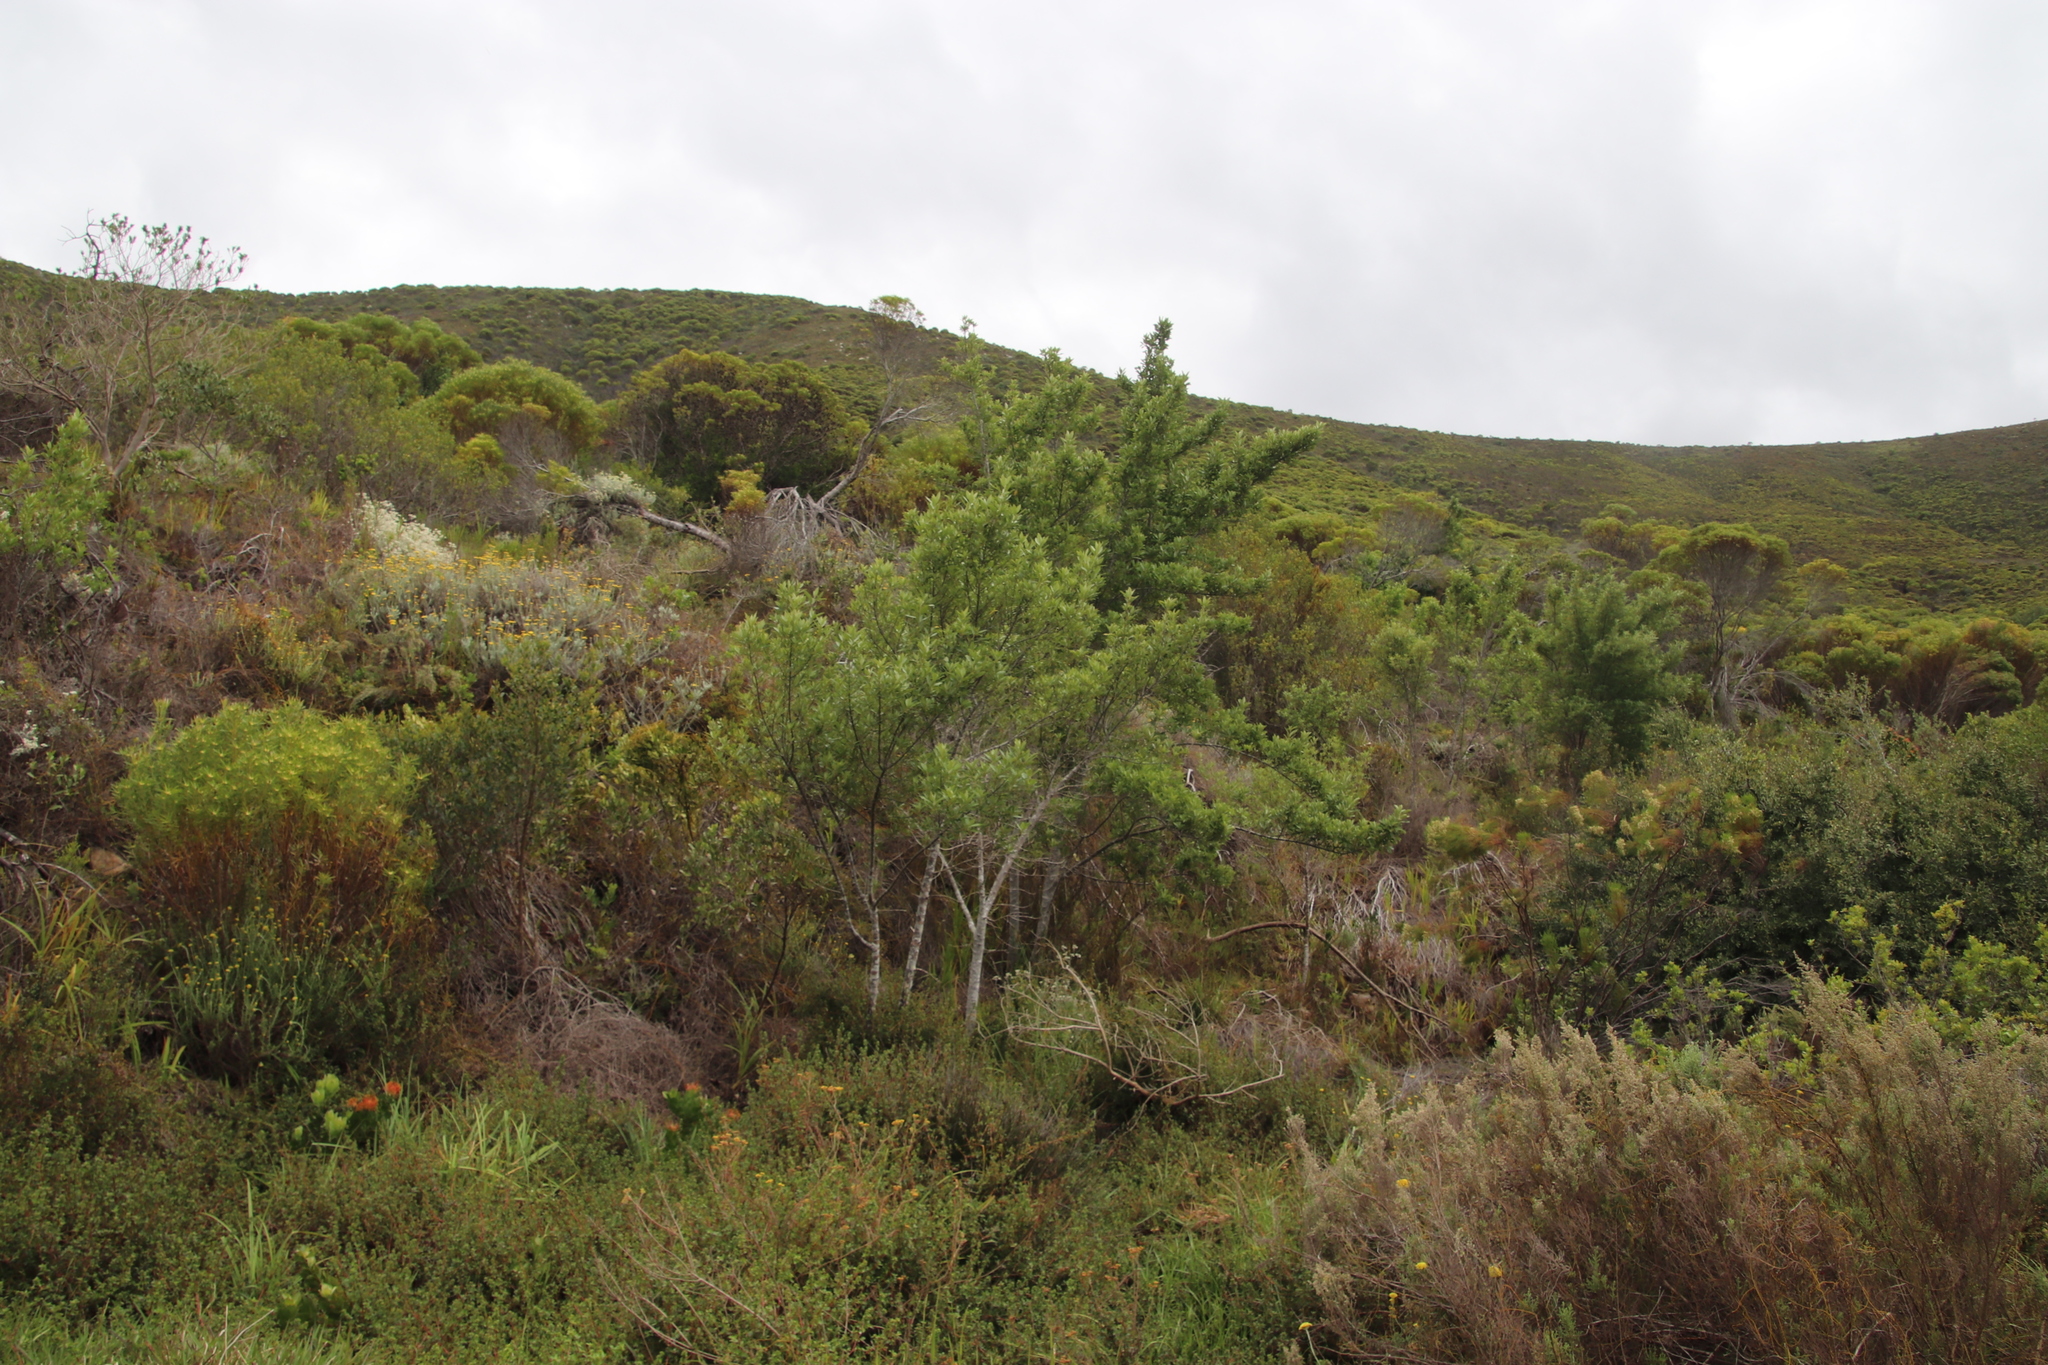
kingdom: Plantae
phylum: Tracheophyta
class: Magnoliopsida
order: Malpighiales
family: Achariaceae
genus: Kiggelaria
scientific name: Kiggelaria africana
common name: Wild peach
